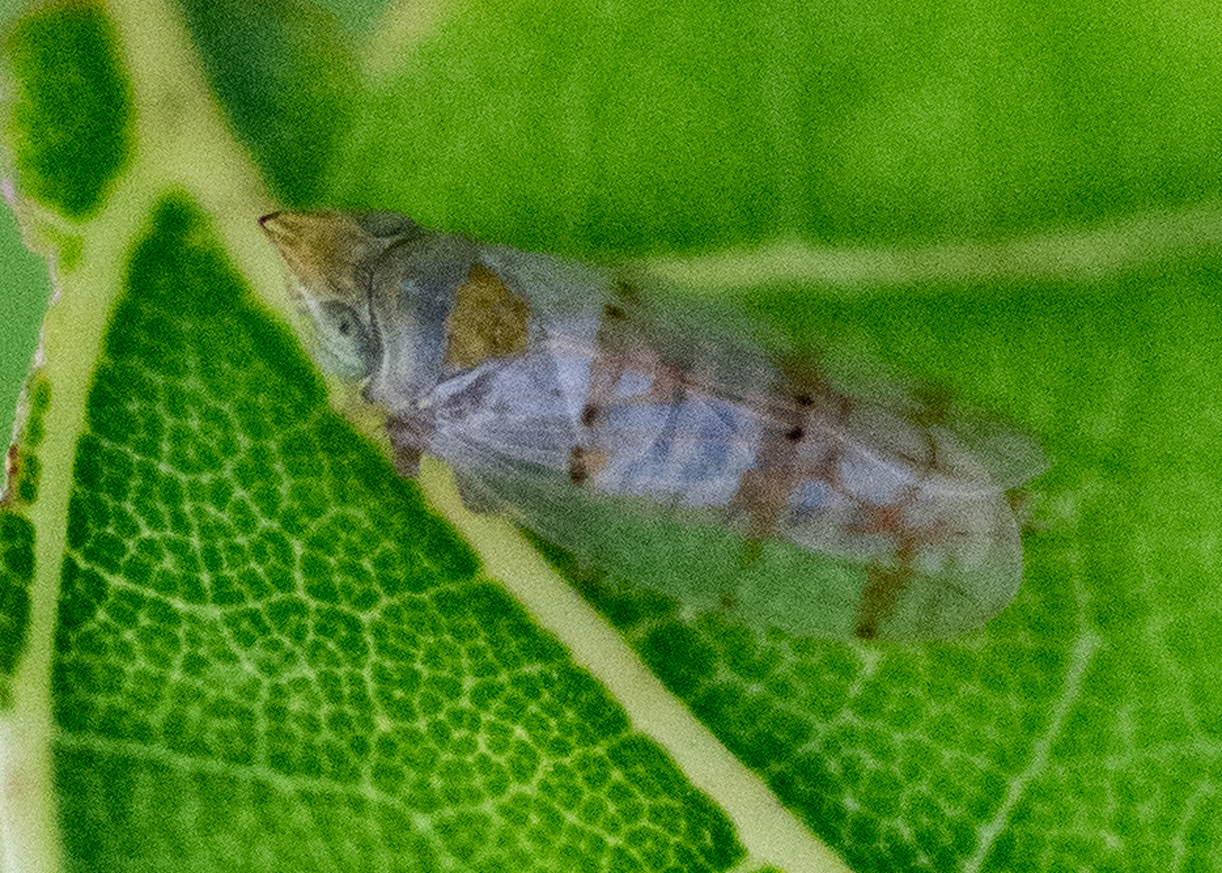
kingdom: Animalia
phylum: Arthropoda
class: Insecta
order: Hemiptera
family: Cicadellidae
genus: Japananus
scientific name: Japananus hyalinus
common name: The japanese maple leafhopper
